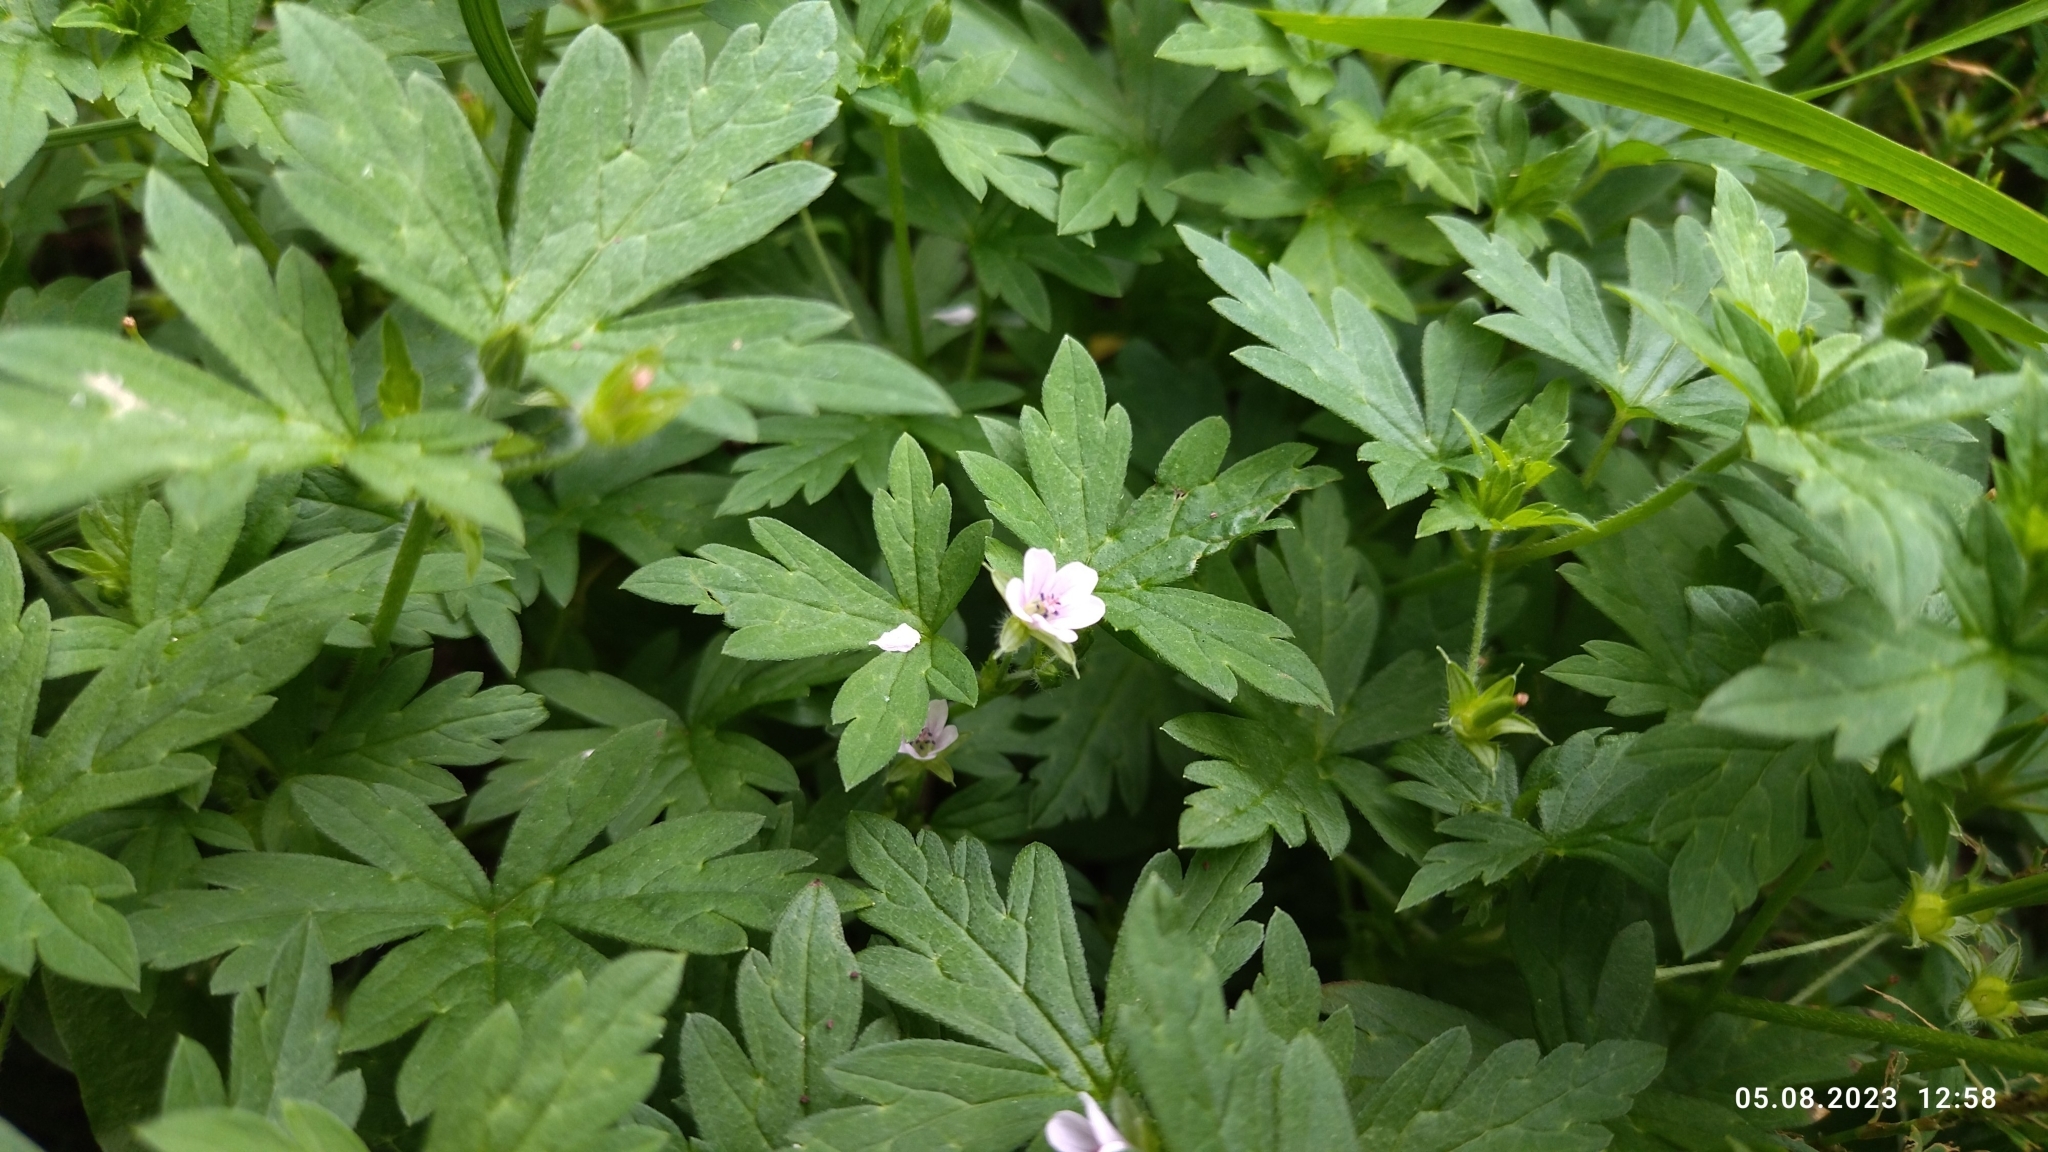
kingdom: Plantae
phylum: Tracheophyta
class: Magnoliopsida
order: Geraniales
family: Geraniaceae
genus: Geranium
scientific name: Geranium sibiricum
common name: Siberian crane's-bill
